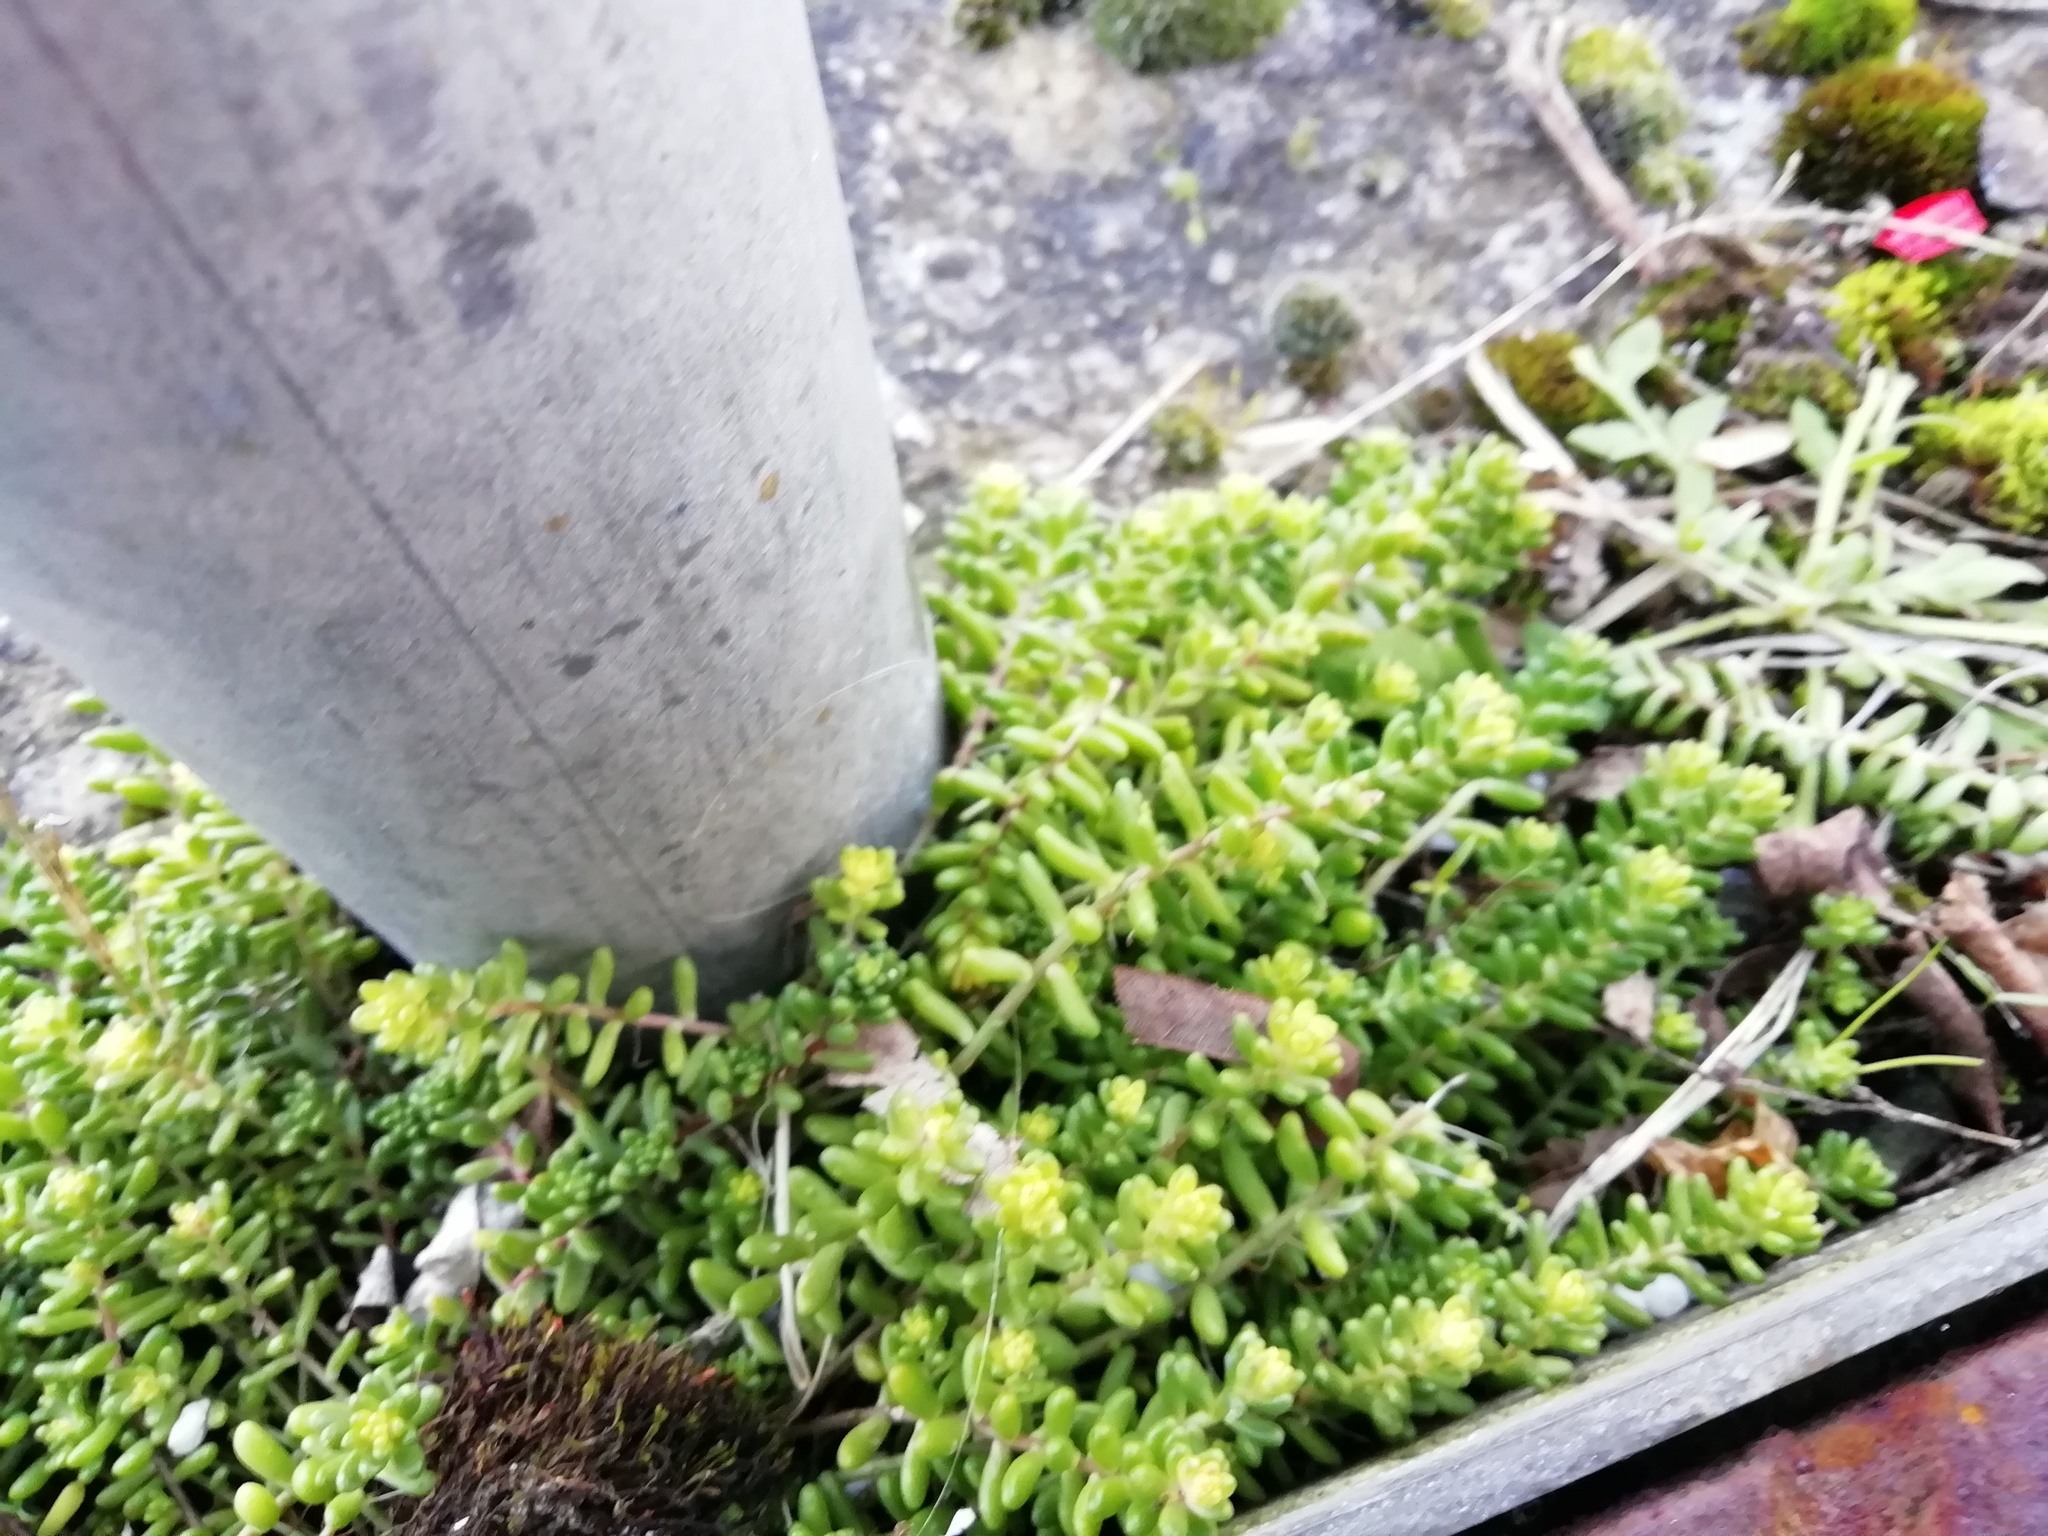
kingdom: Plantae
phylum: Tracheophyta
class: Magnoliopsida
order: Saxifragales
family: Crassulaceae
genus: Sedum
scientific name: Sedum album
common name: White stonecrop
